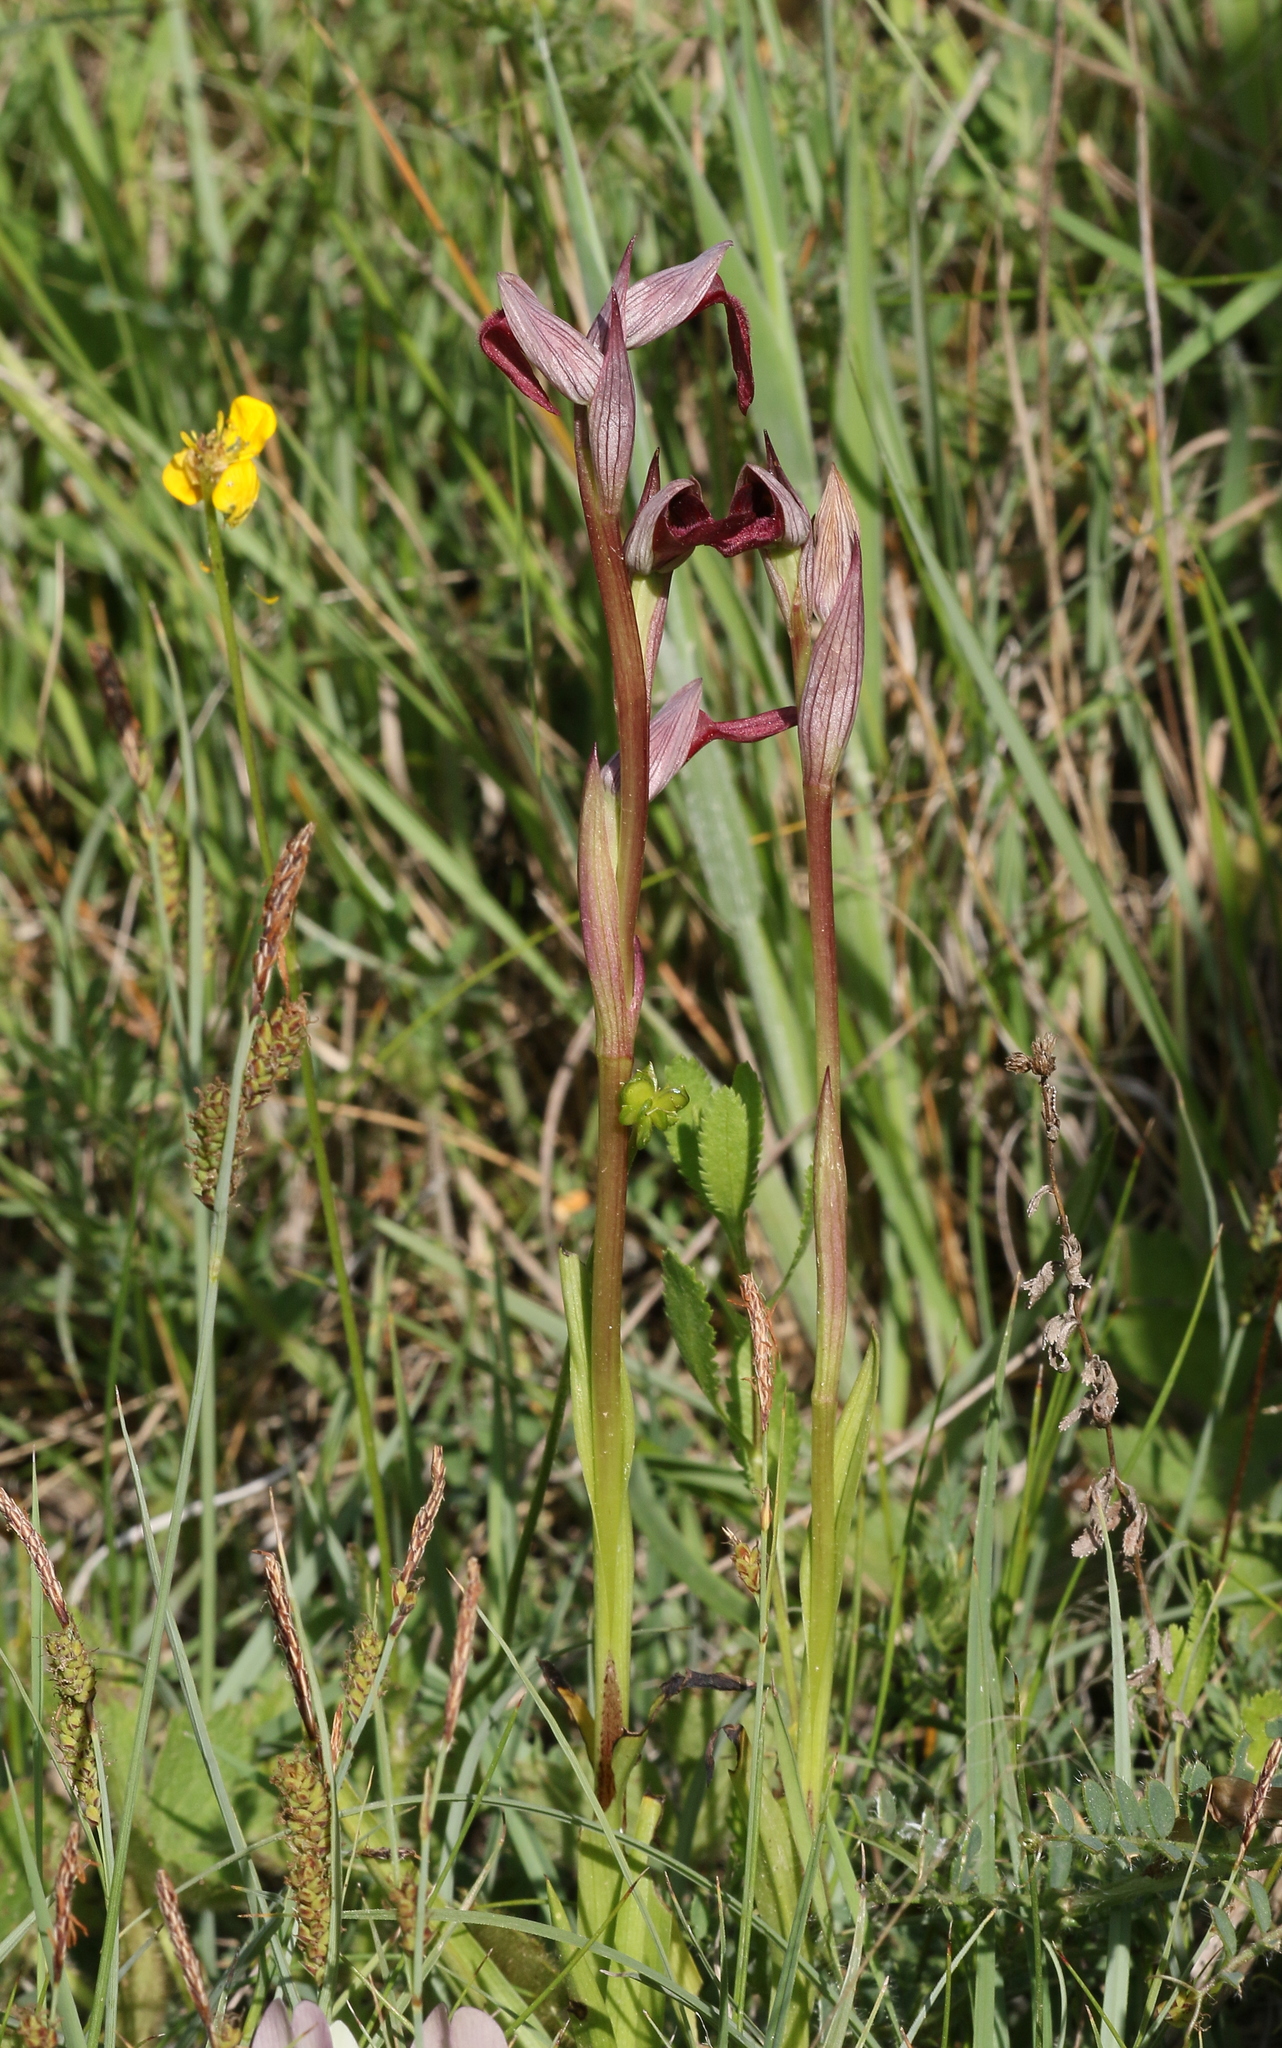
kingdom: Plantae
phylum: Tracheophyta
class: Liliopsida
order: Asparagales
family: Orchidaceae
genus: Serapias
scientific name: Serapias strictiflora
